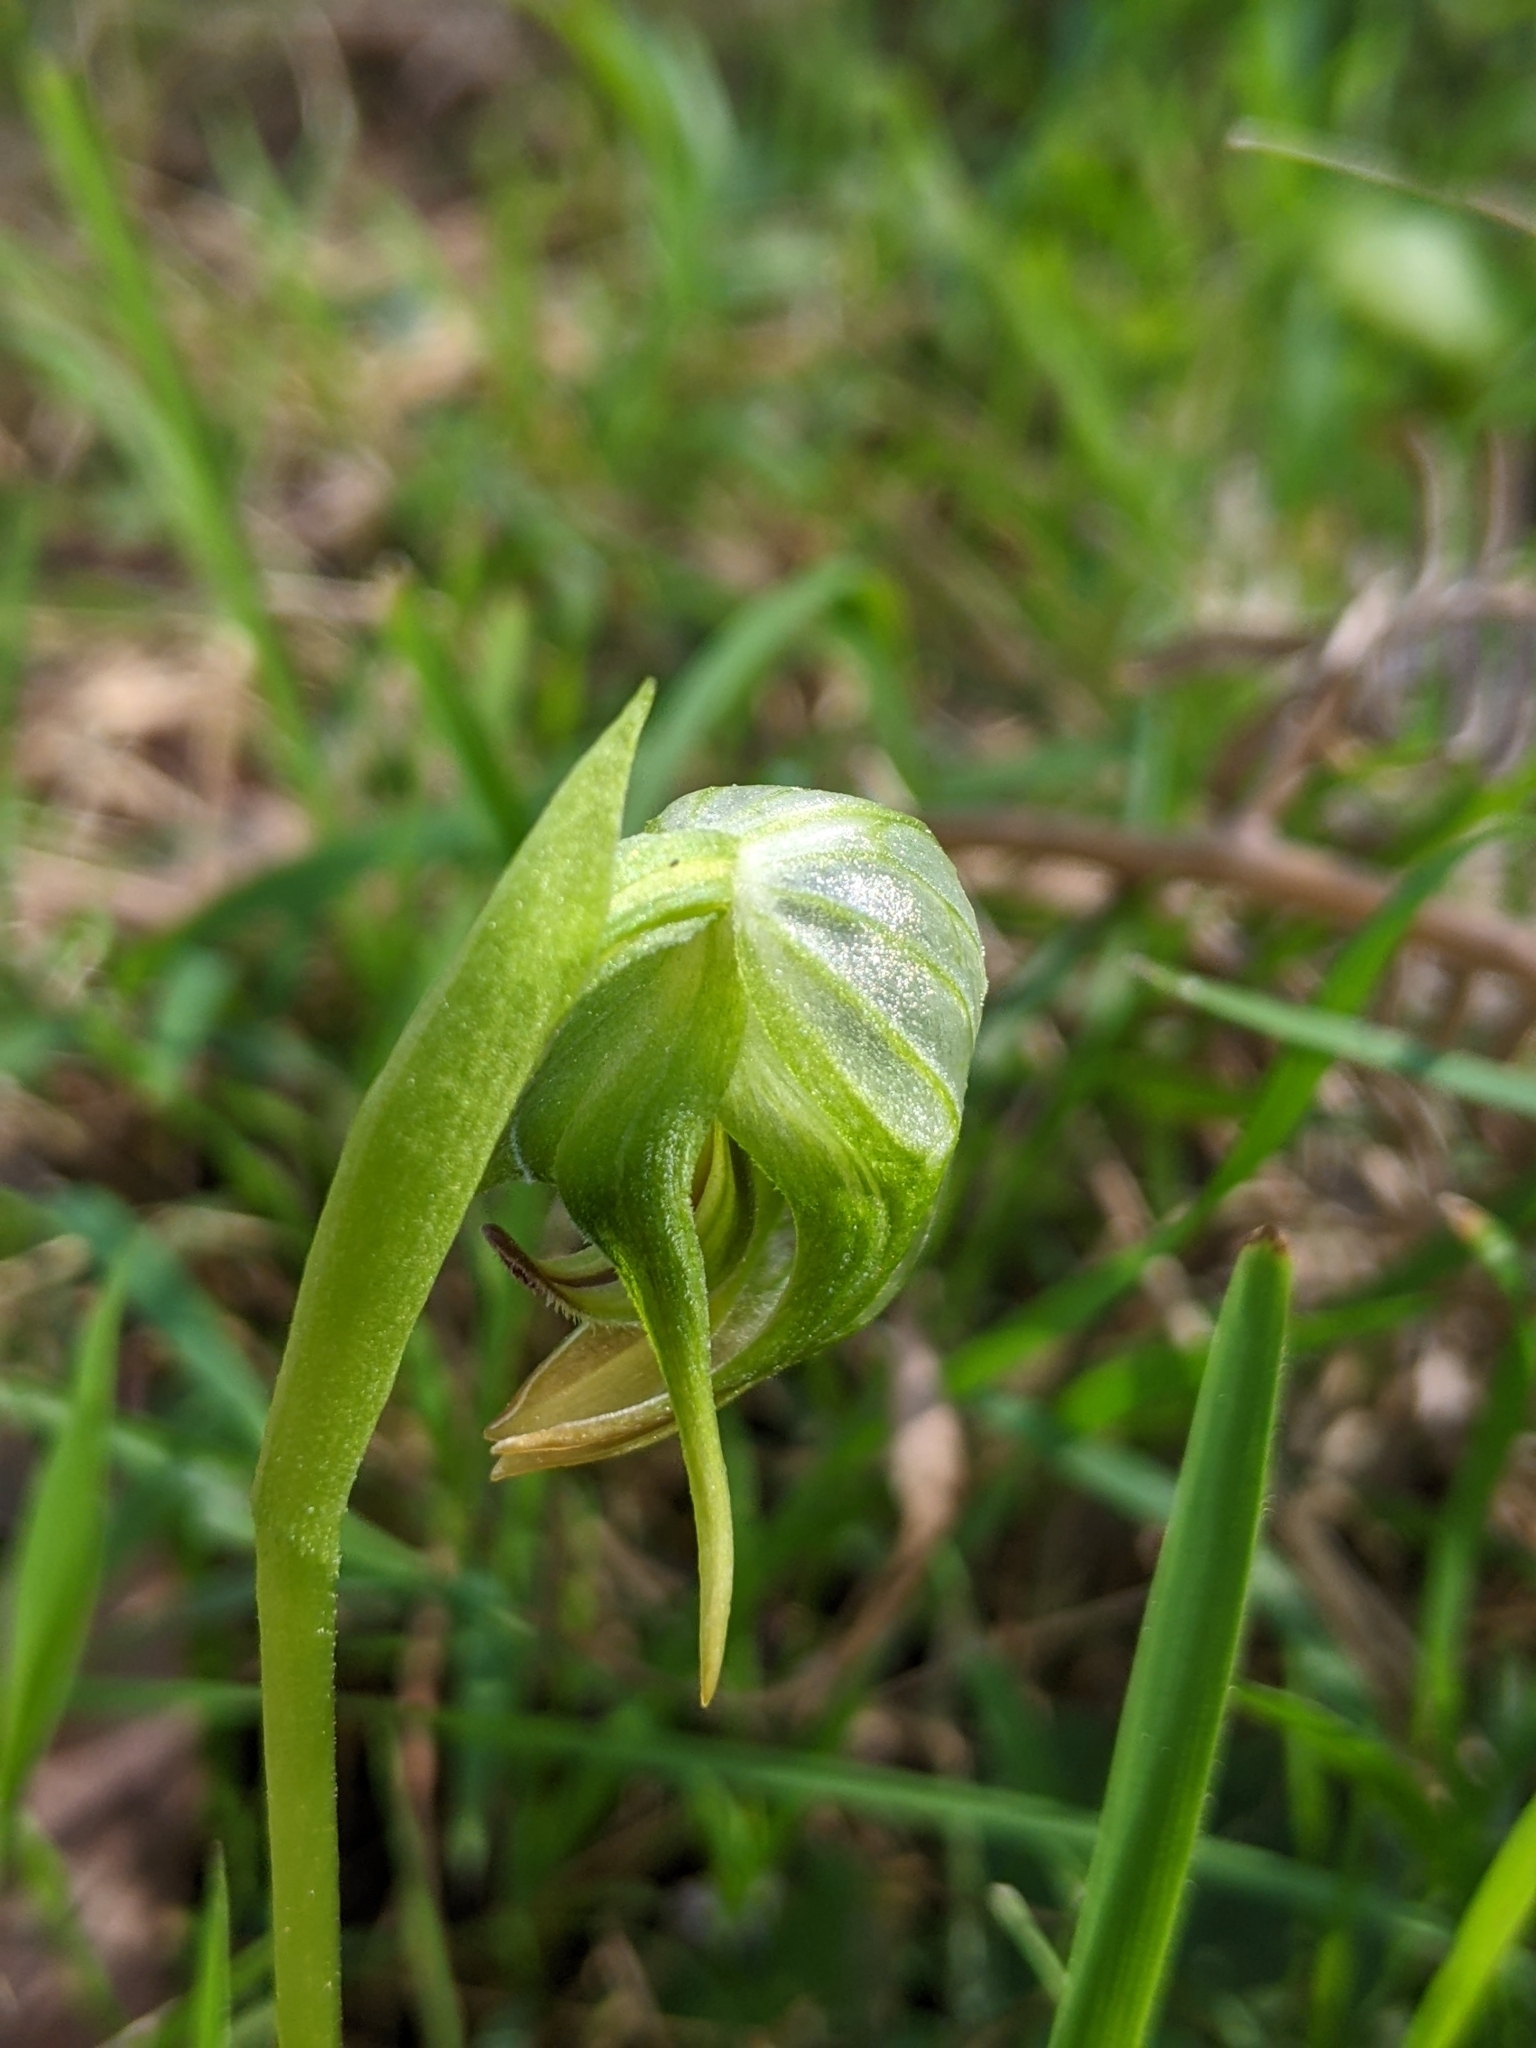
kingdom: Plantae
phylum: Tracheophyta
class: Liliopsida
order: Asparagales
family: Orchidaceae
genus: Pterostylis
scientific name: Pterostylis nutans
